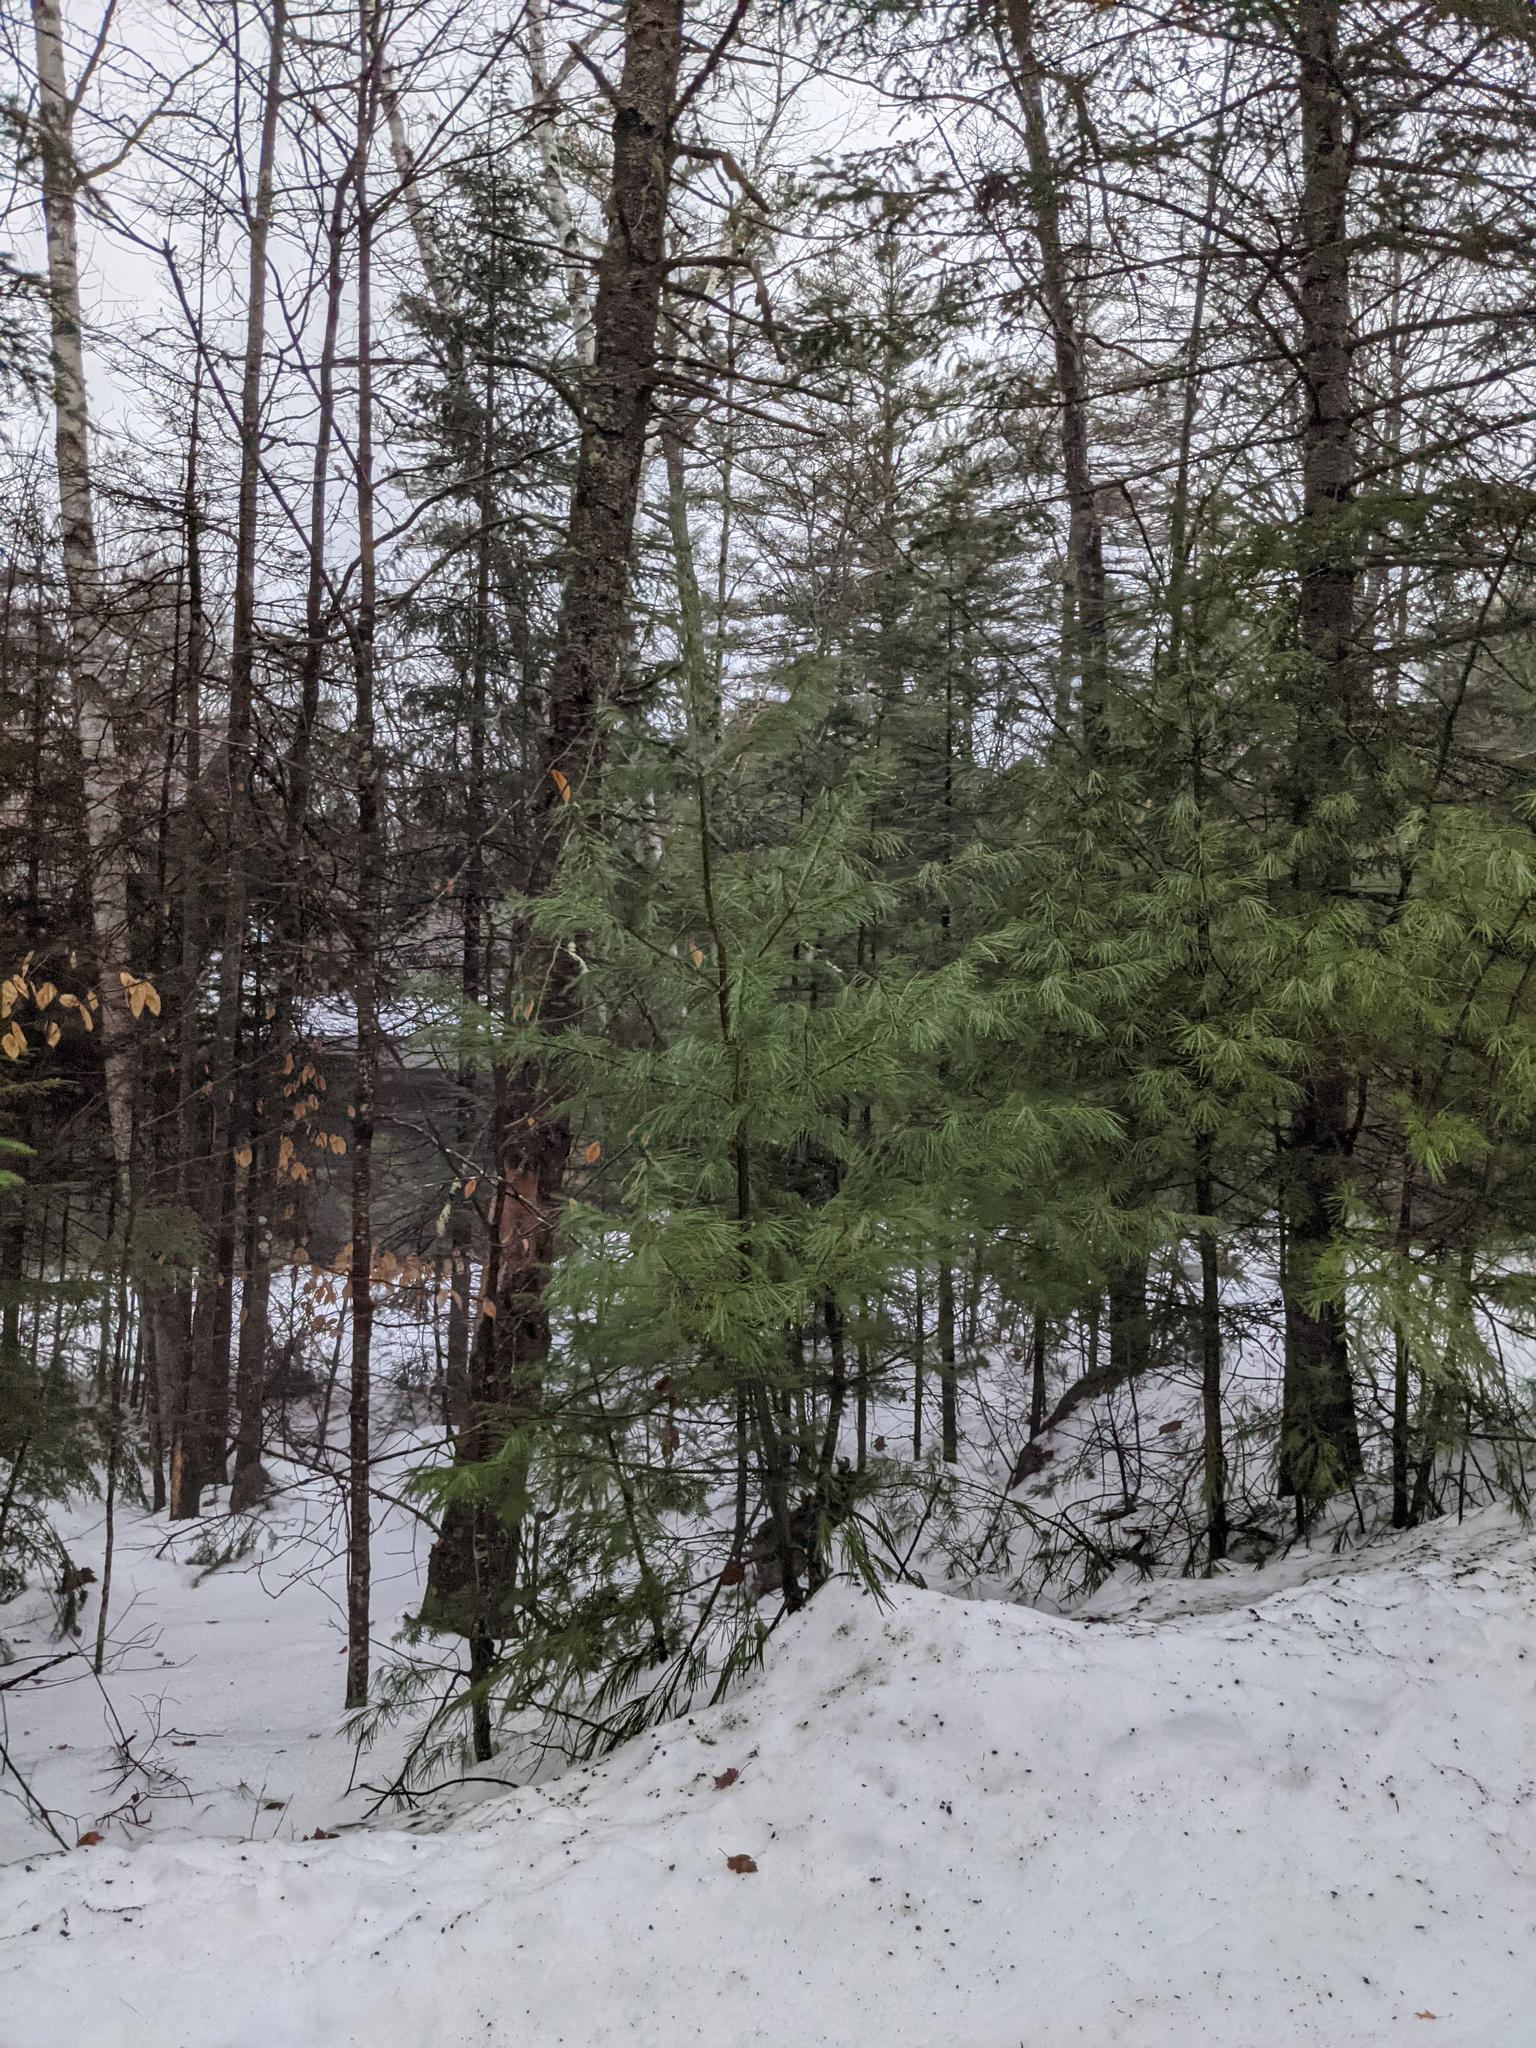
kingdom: Plantae
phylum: Tracheophyta
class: Pinopsida
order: Pinales
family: Pinaceae
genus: Pinus
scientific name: Pinus strobus
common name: Weymouth pine
